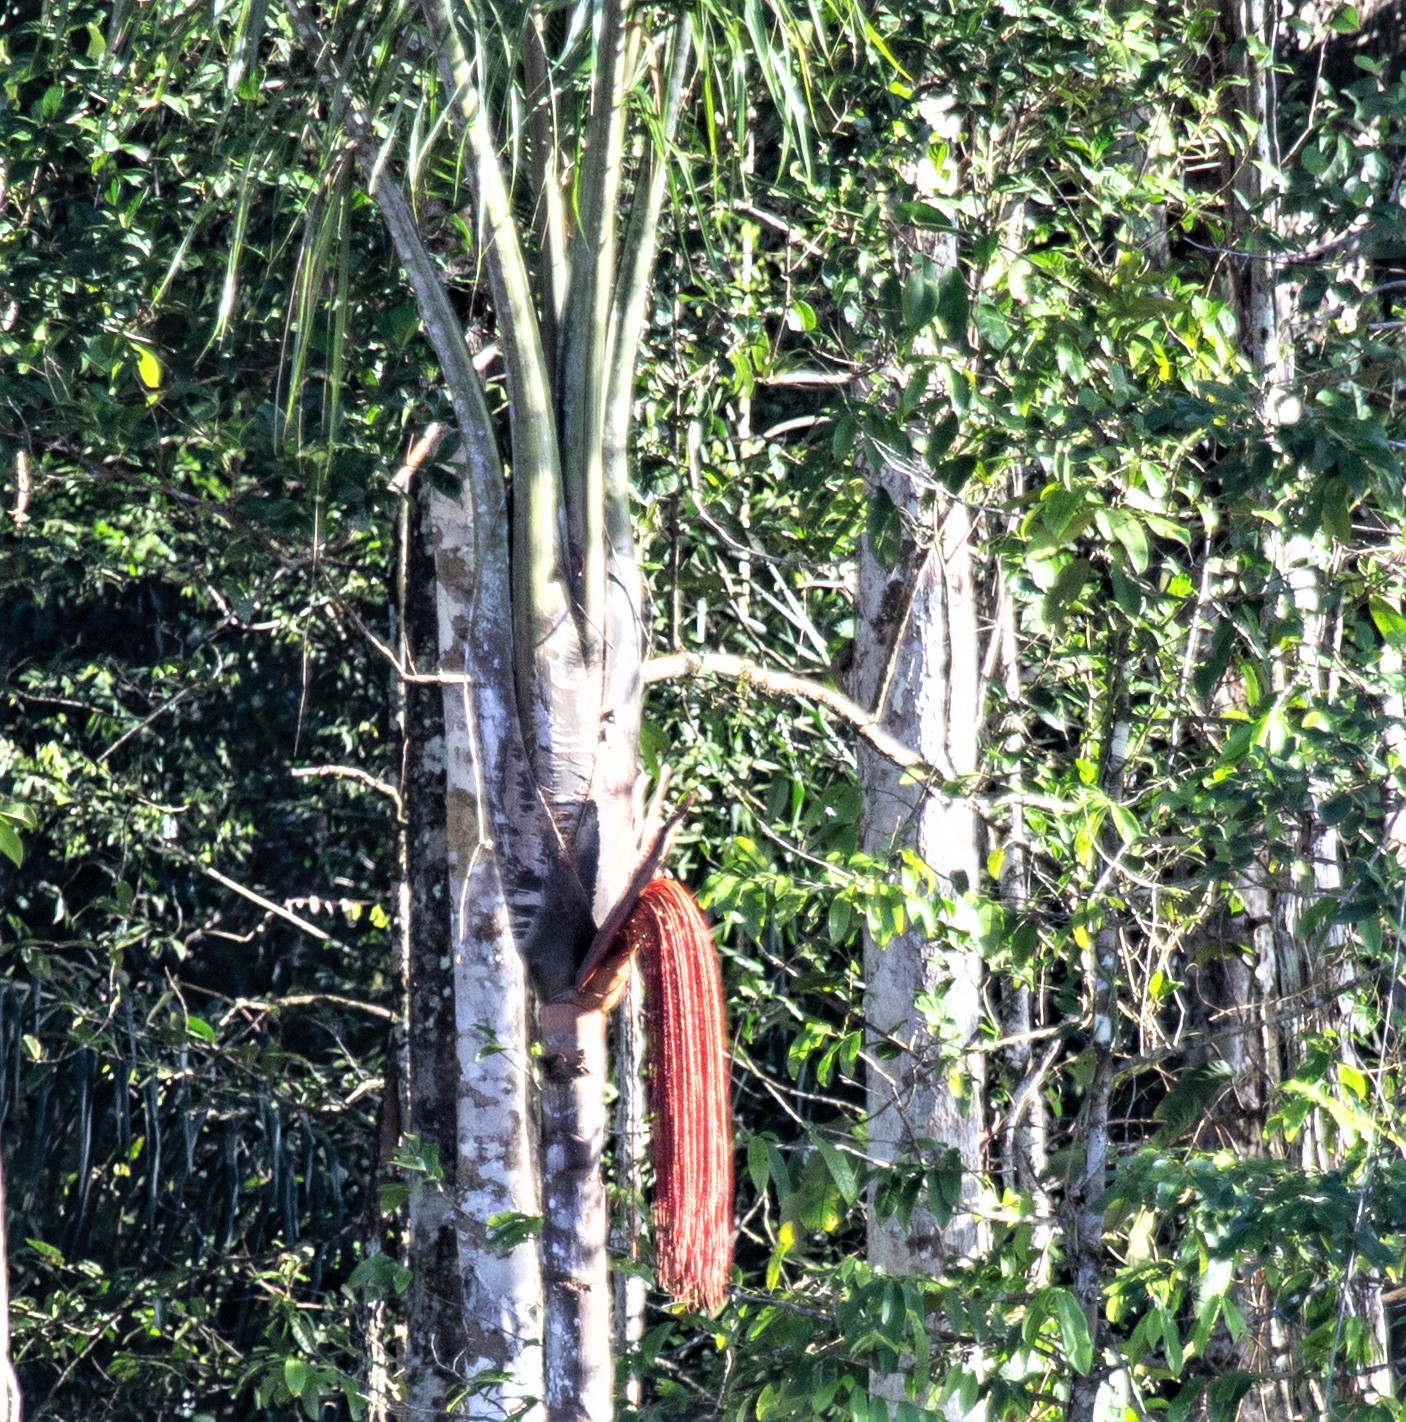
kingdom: Plantae
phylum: Tracheophyta
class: Liliopsida
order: Arecales
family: Arecaceae
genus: Oenocarpus
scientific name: Oenocarpus bataua
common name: Bataua palm
